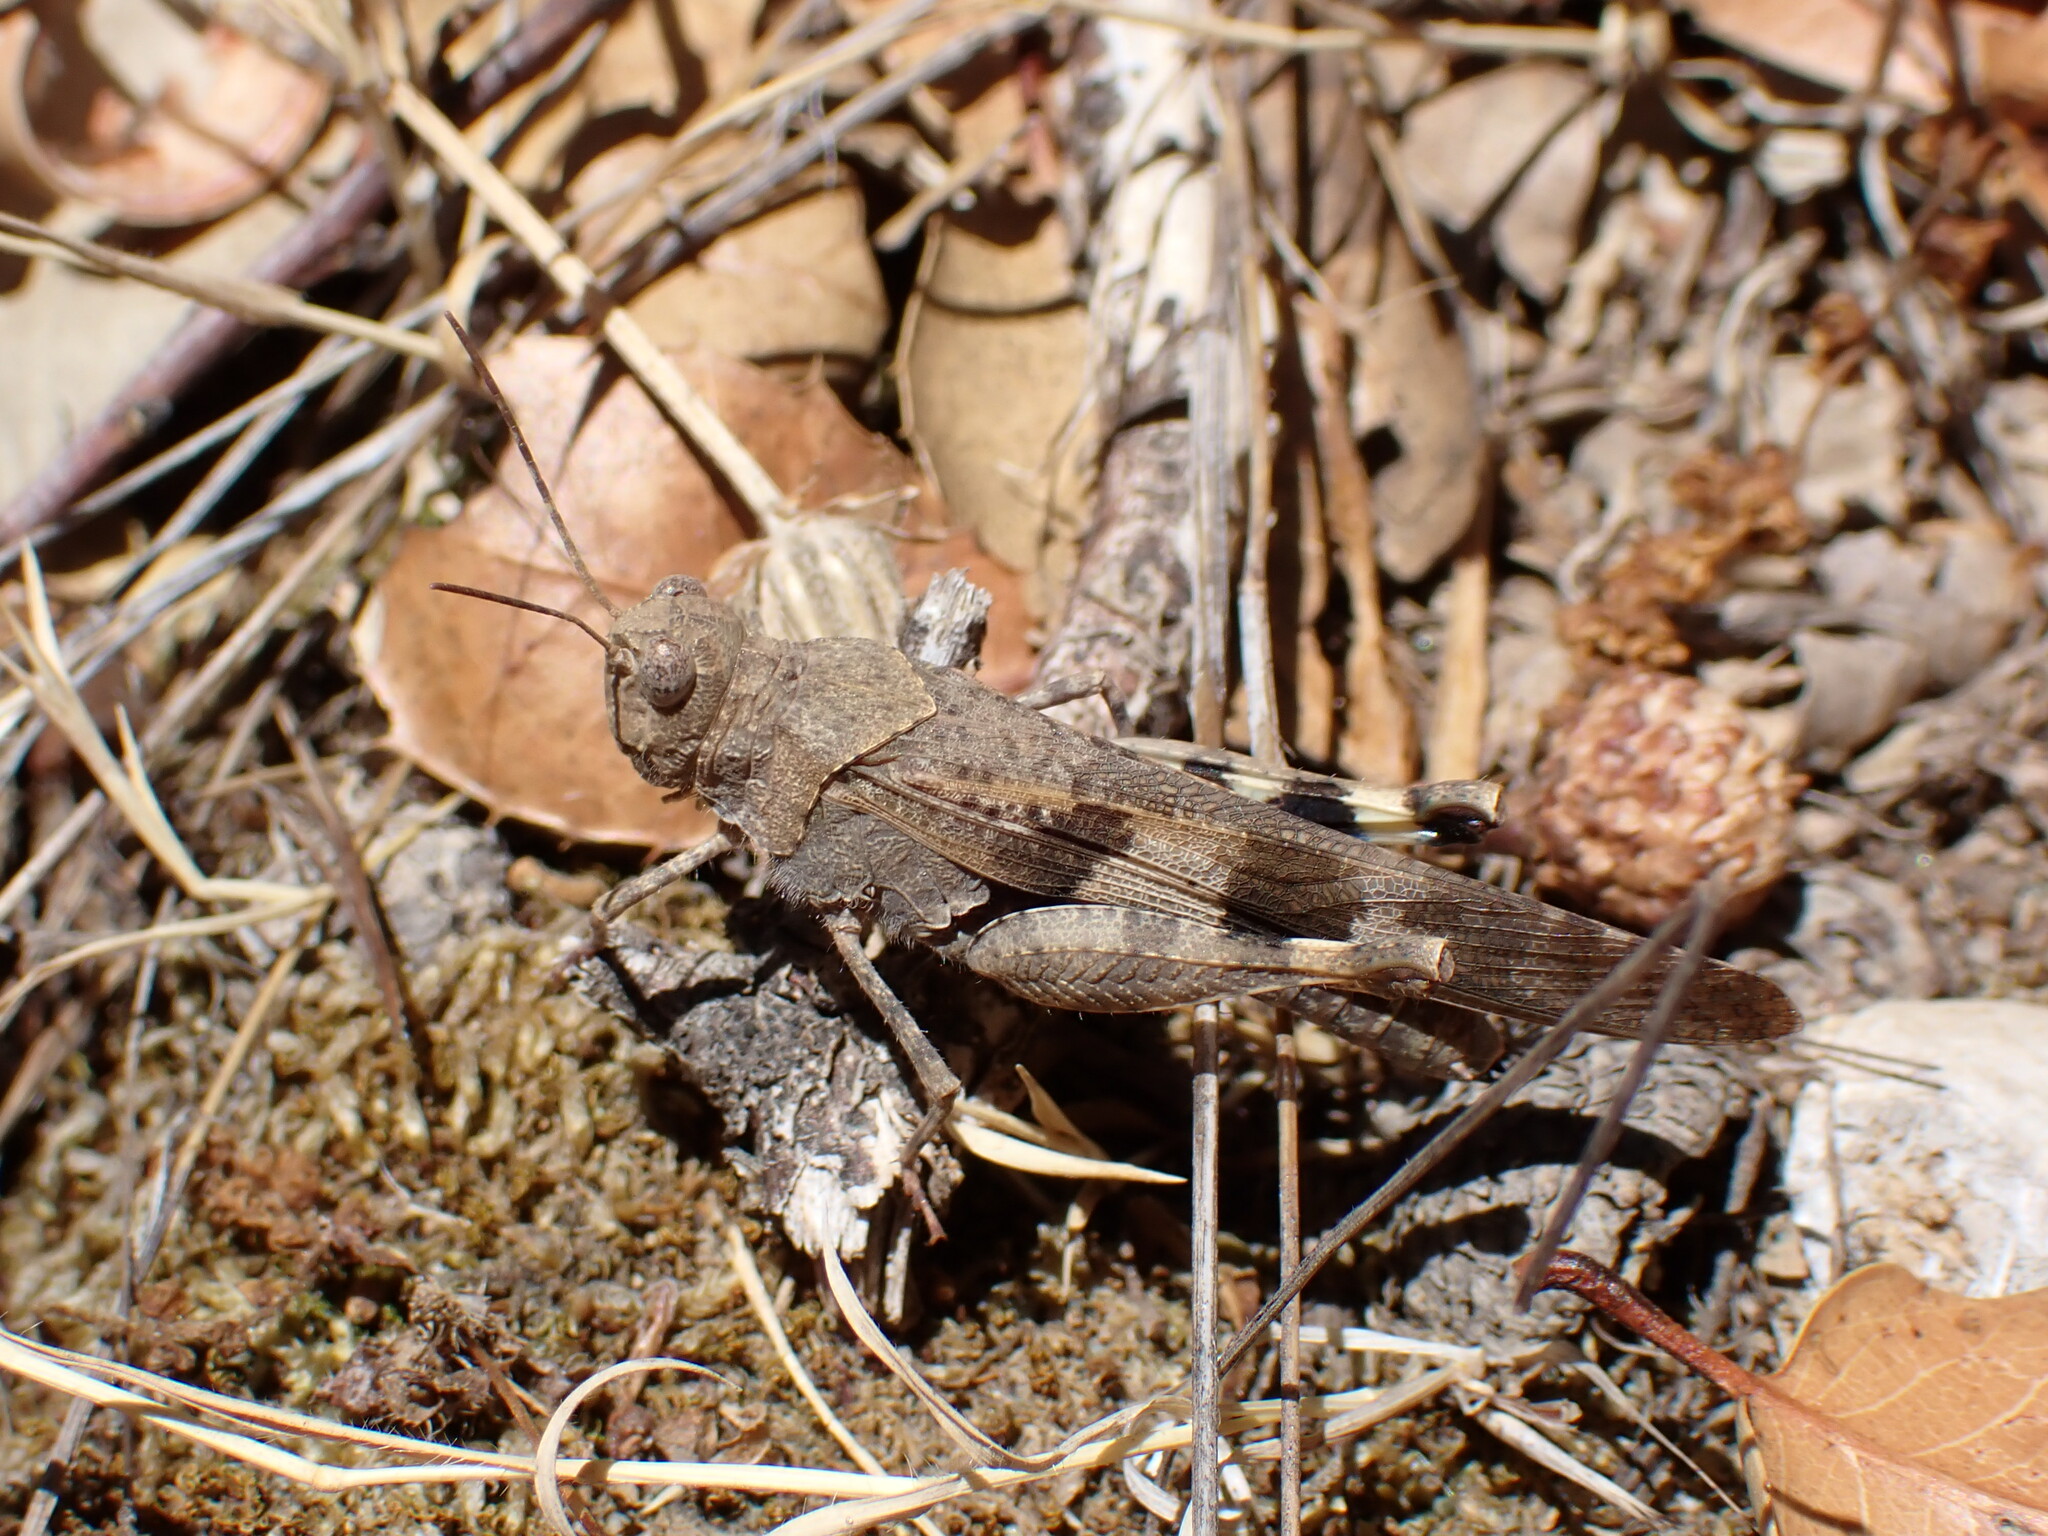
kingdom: Animalia
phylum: Arthropoda
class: Insecta
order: Orthoptera
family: Acrididae
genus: Trimerotropis
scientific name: Trimerotropis fontana
